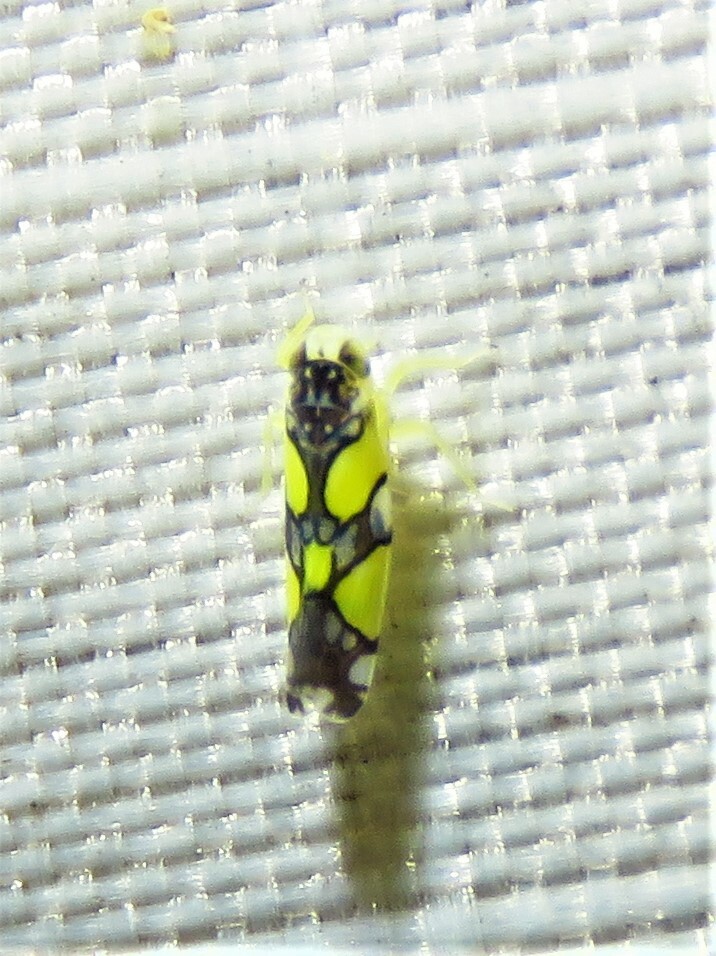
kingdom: Animalia
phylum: Arthropoda
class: Insecta
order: Hemiptera
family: Cicadellidae
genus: Protalebrella
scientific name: Protalebrella brasiliensis
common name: Brasilian leafhopper
